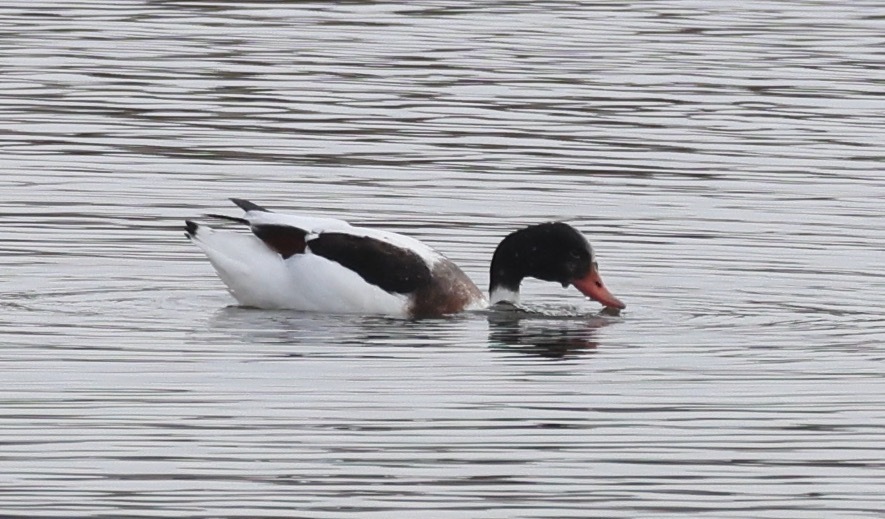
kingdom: Animalia
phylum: Chordata
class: Aves
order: Anseriformes
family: Anatidae
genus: Tadorna
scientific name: Tadorna tadorna
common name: Common shelduck
